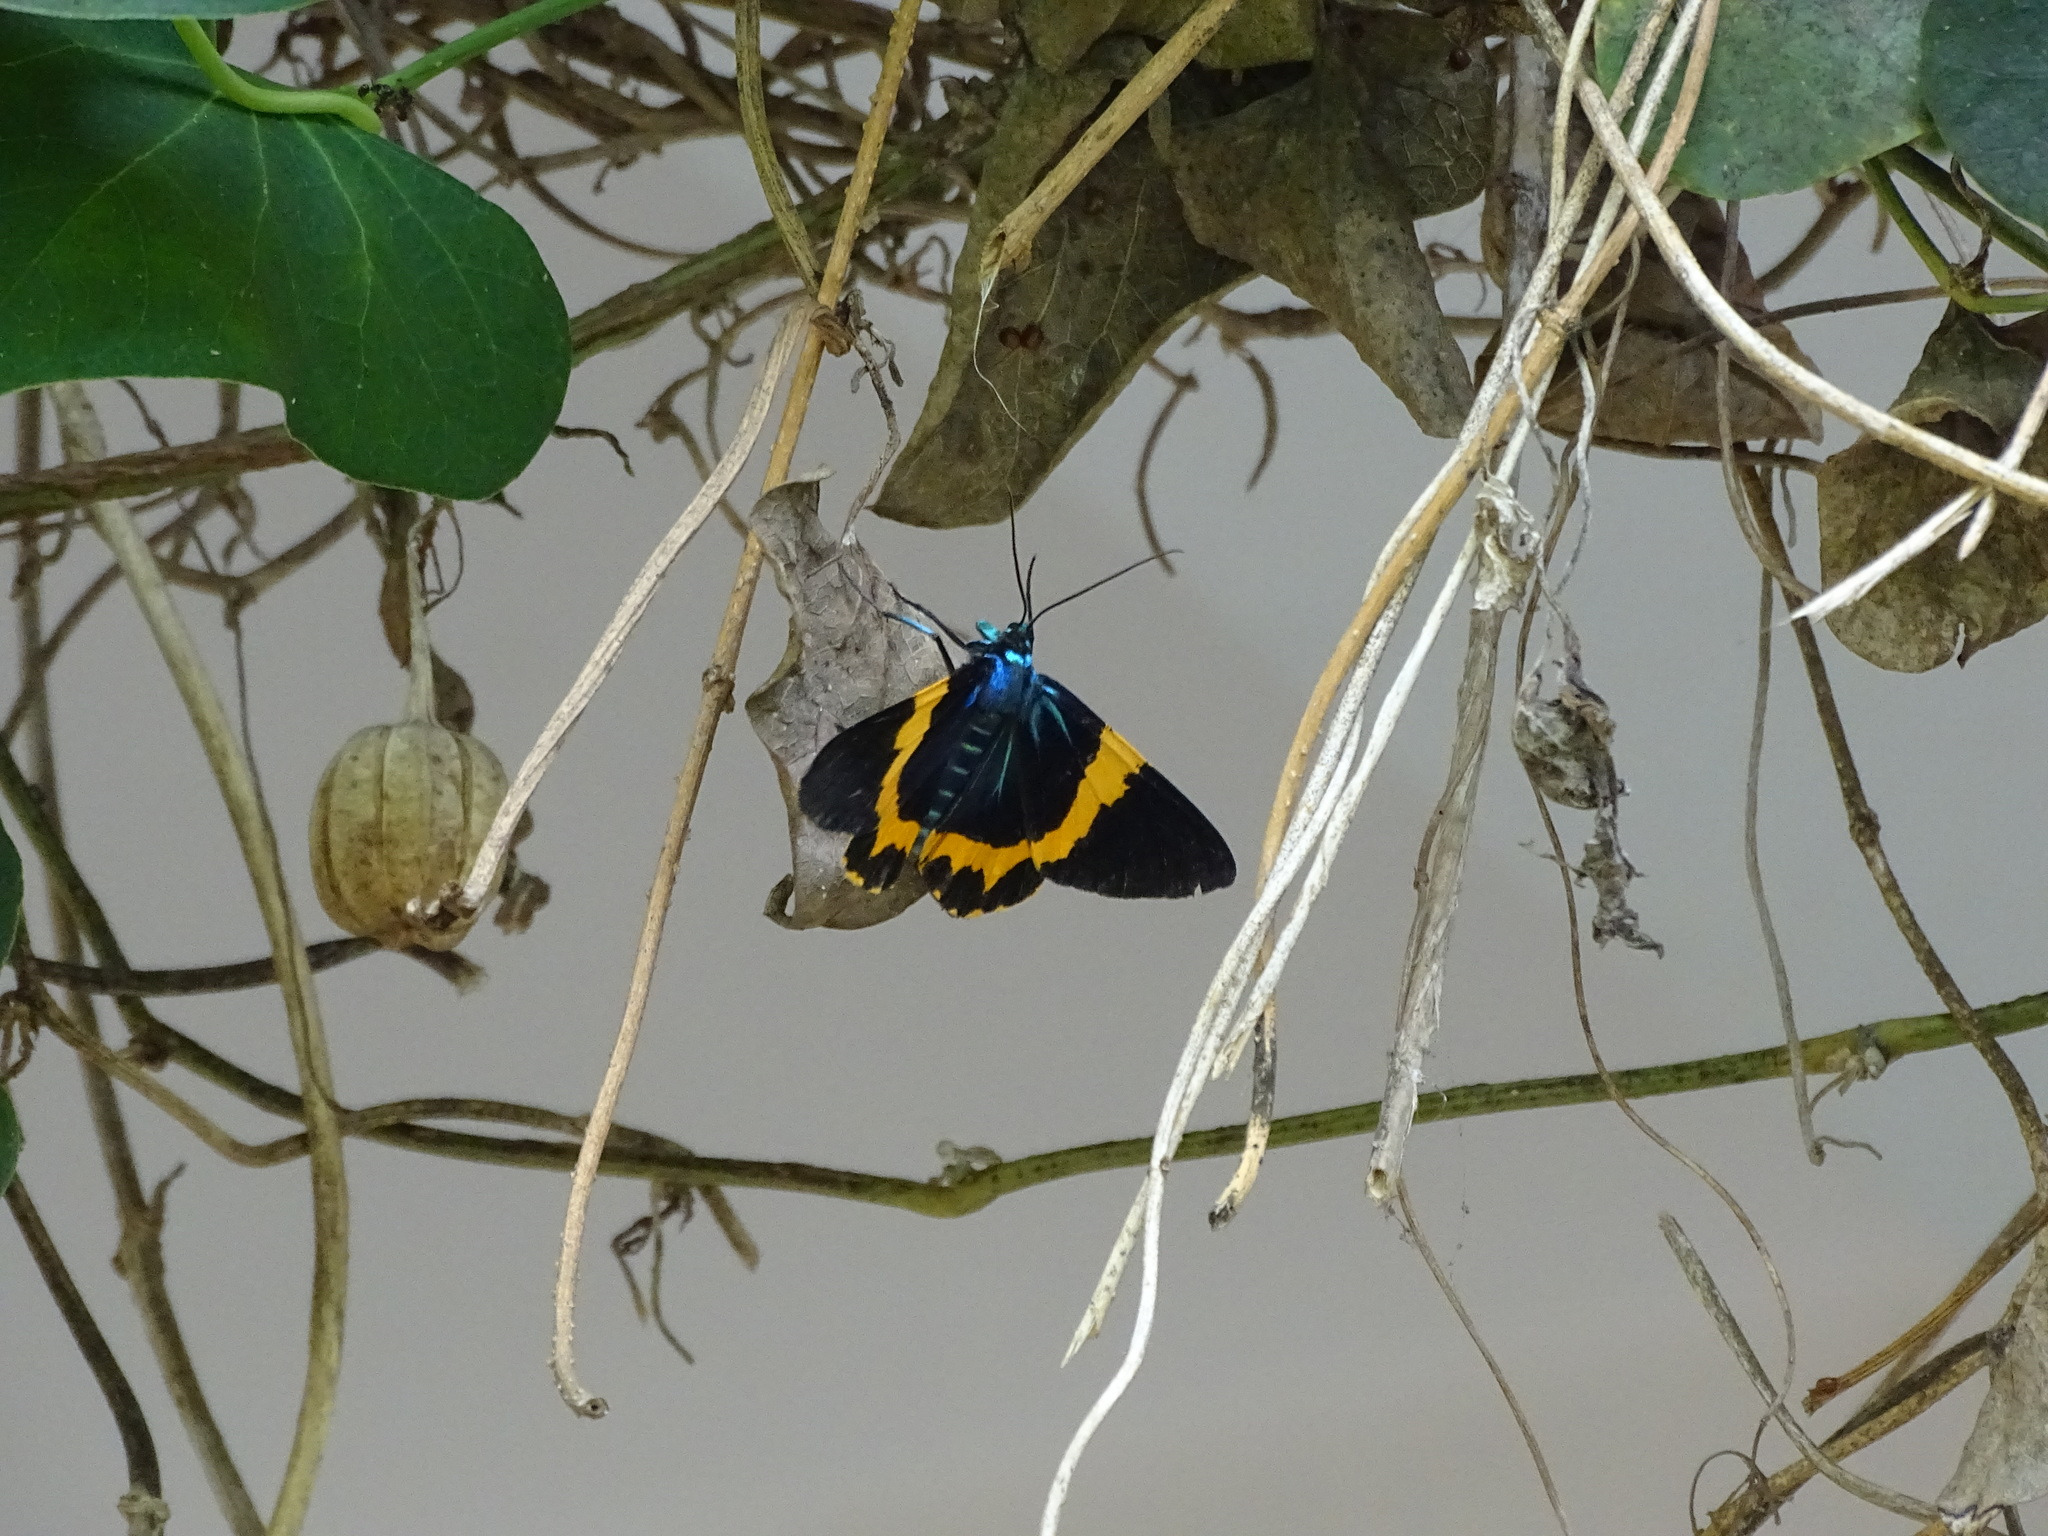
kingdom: Animalia
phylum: Arthropoda
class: Insecta
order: Lepidoptera
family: Geometridae
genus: Milionia
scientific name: Milionia basalis
